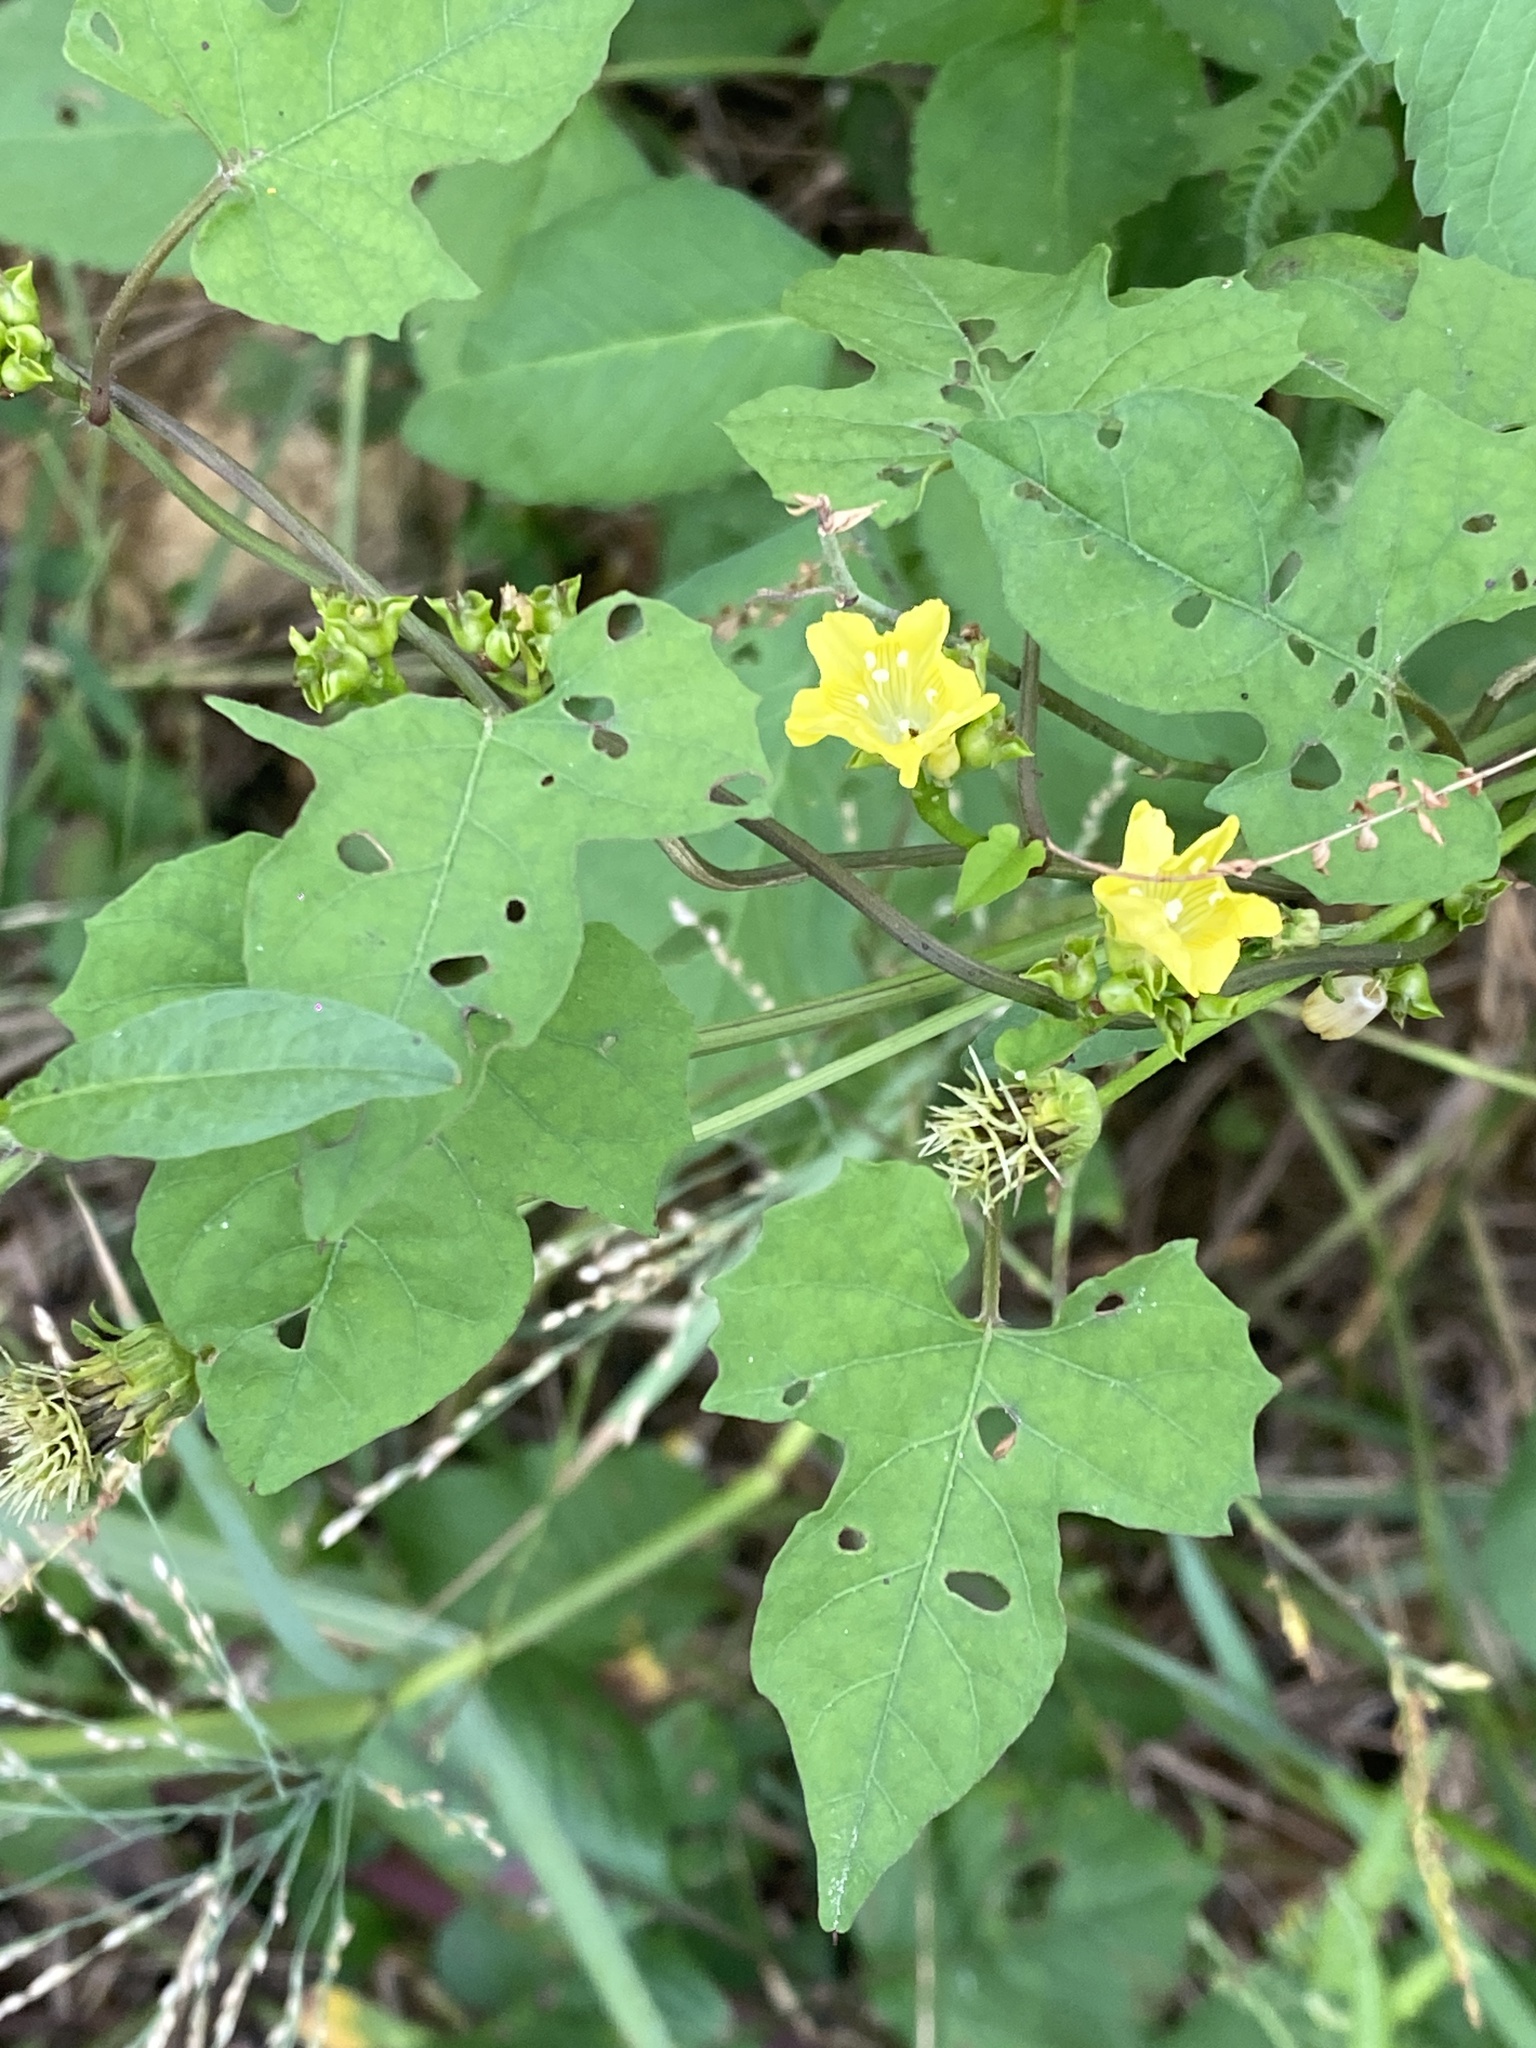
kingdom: Plantae
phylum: Tracheophyta
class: Magnoliopsida
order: Solanales
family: Convolvulaceae
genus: Merremia
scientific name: Merremia hederacea
